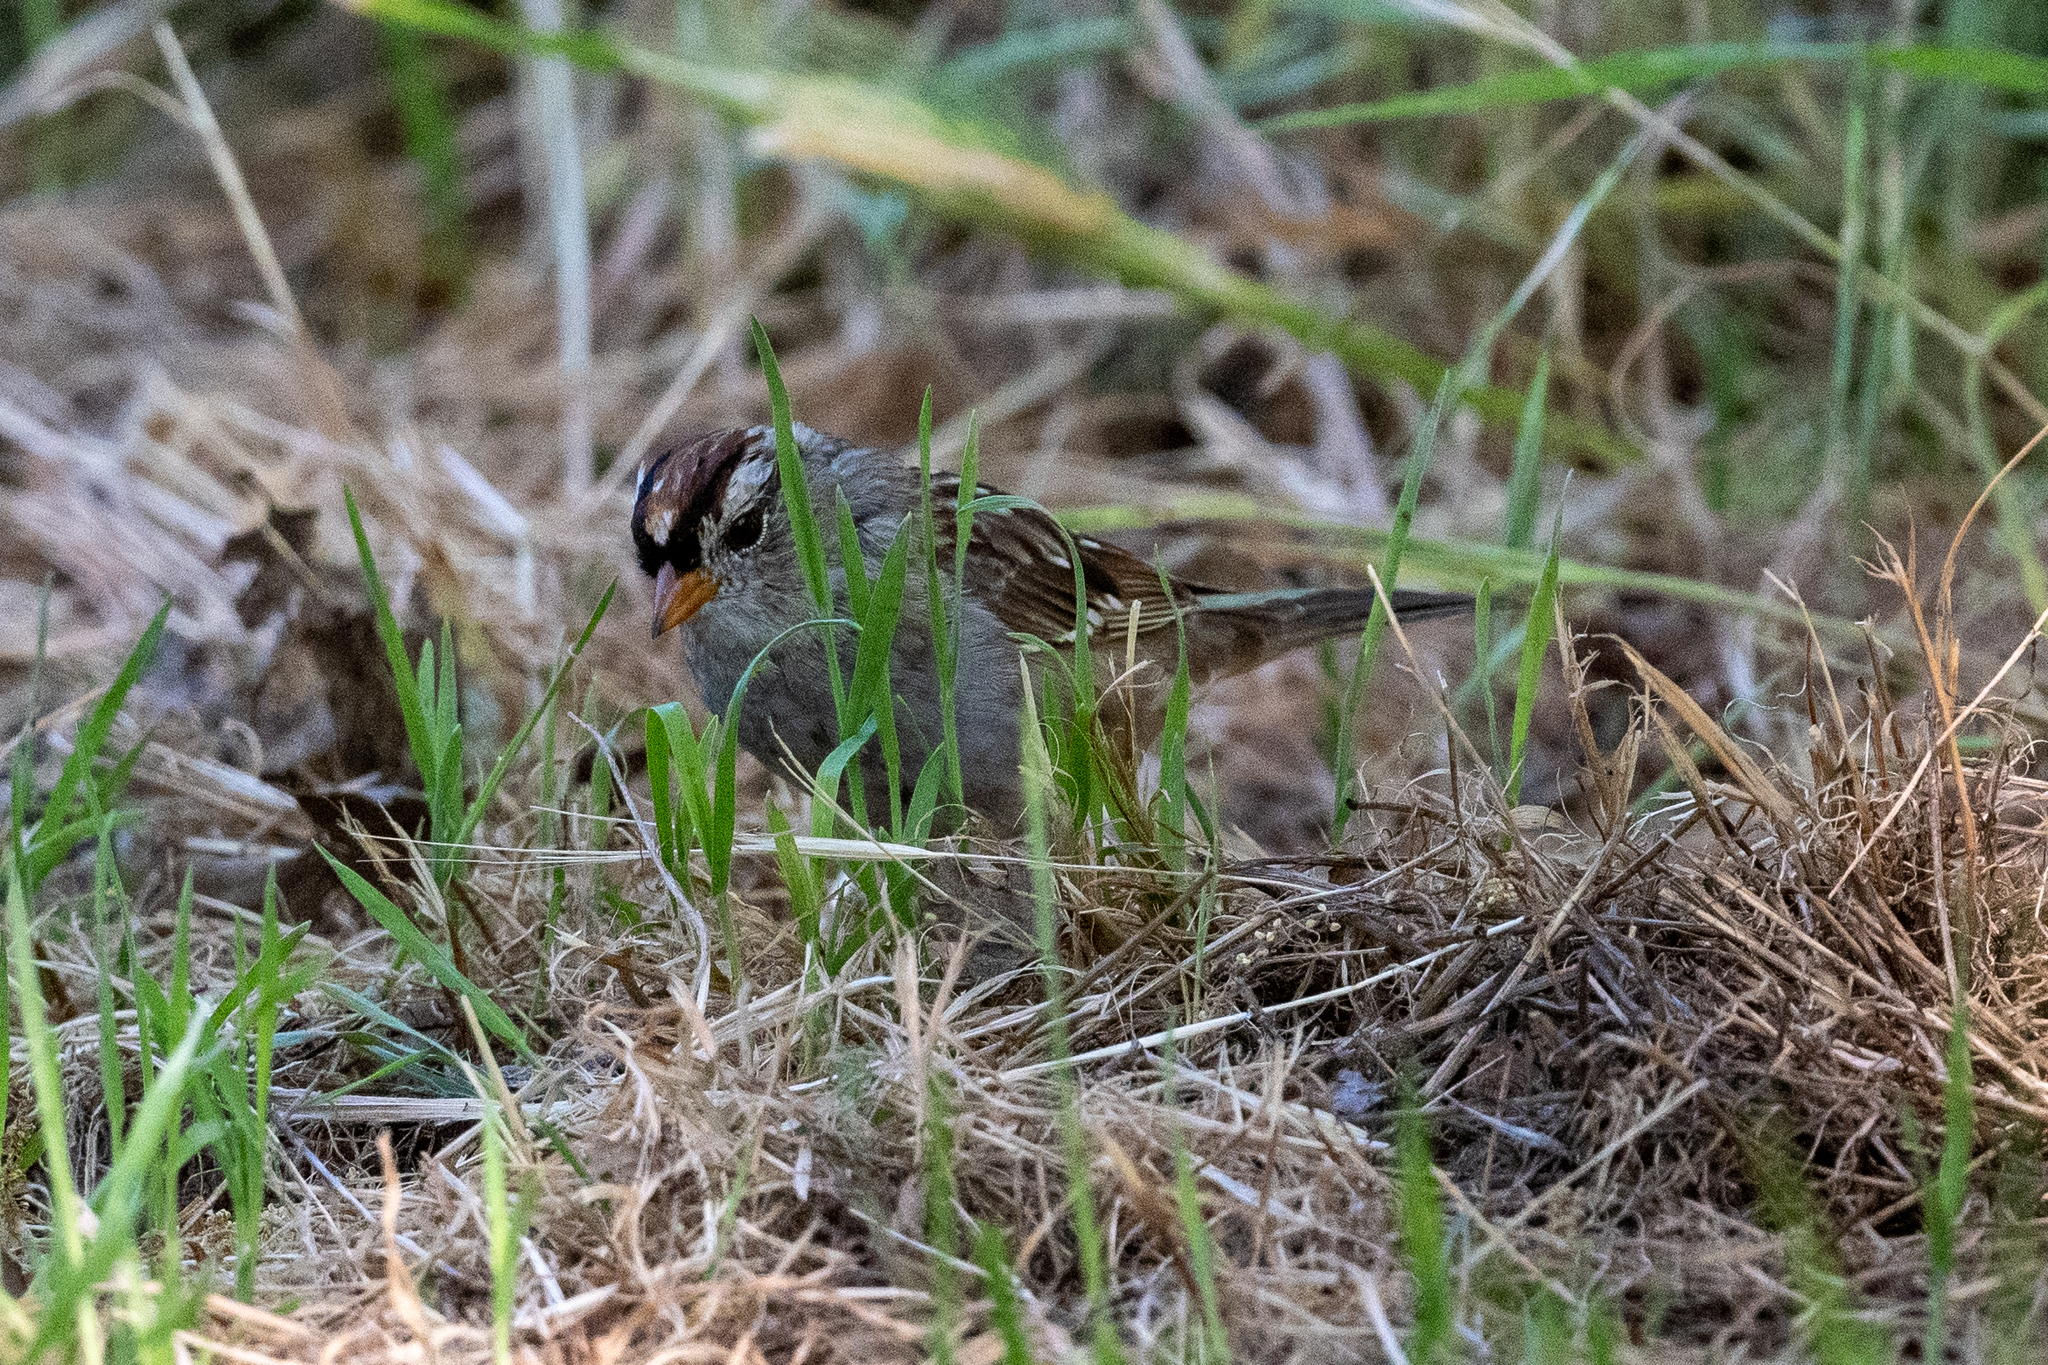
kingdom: Animalia
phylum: Chordata
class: Aves
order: Passeriformes
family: Passerellidae
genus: Zonotrichia
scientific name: Zonotrichia leucophrys
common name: White-crowned sparrow
